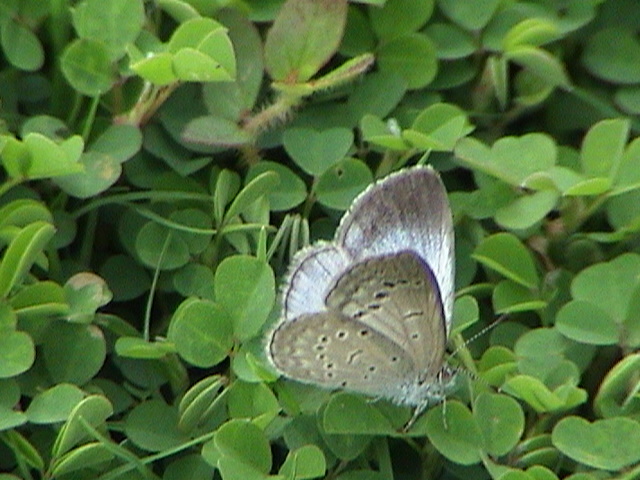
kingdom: Animalia
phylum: Arthropoda
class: Insecta
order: Lepidoptera
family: Lycaenidae
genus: Pseudozizeeria
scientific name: Pseudozizeeria maha
